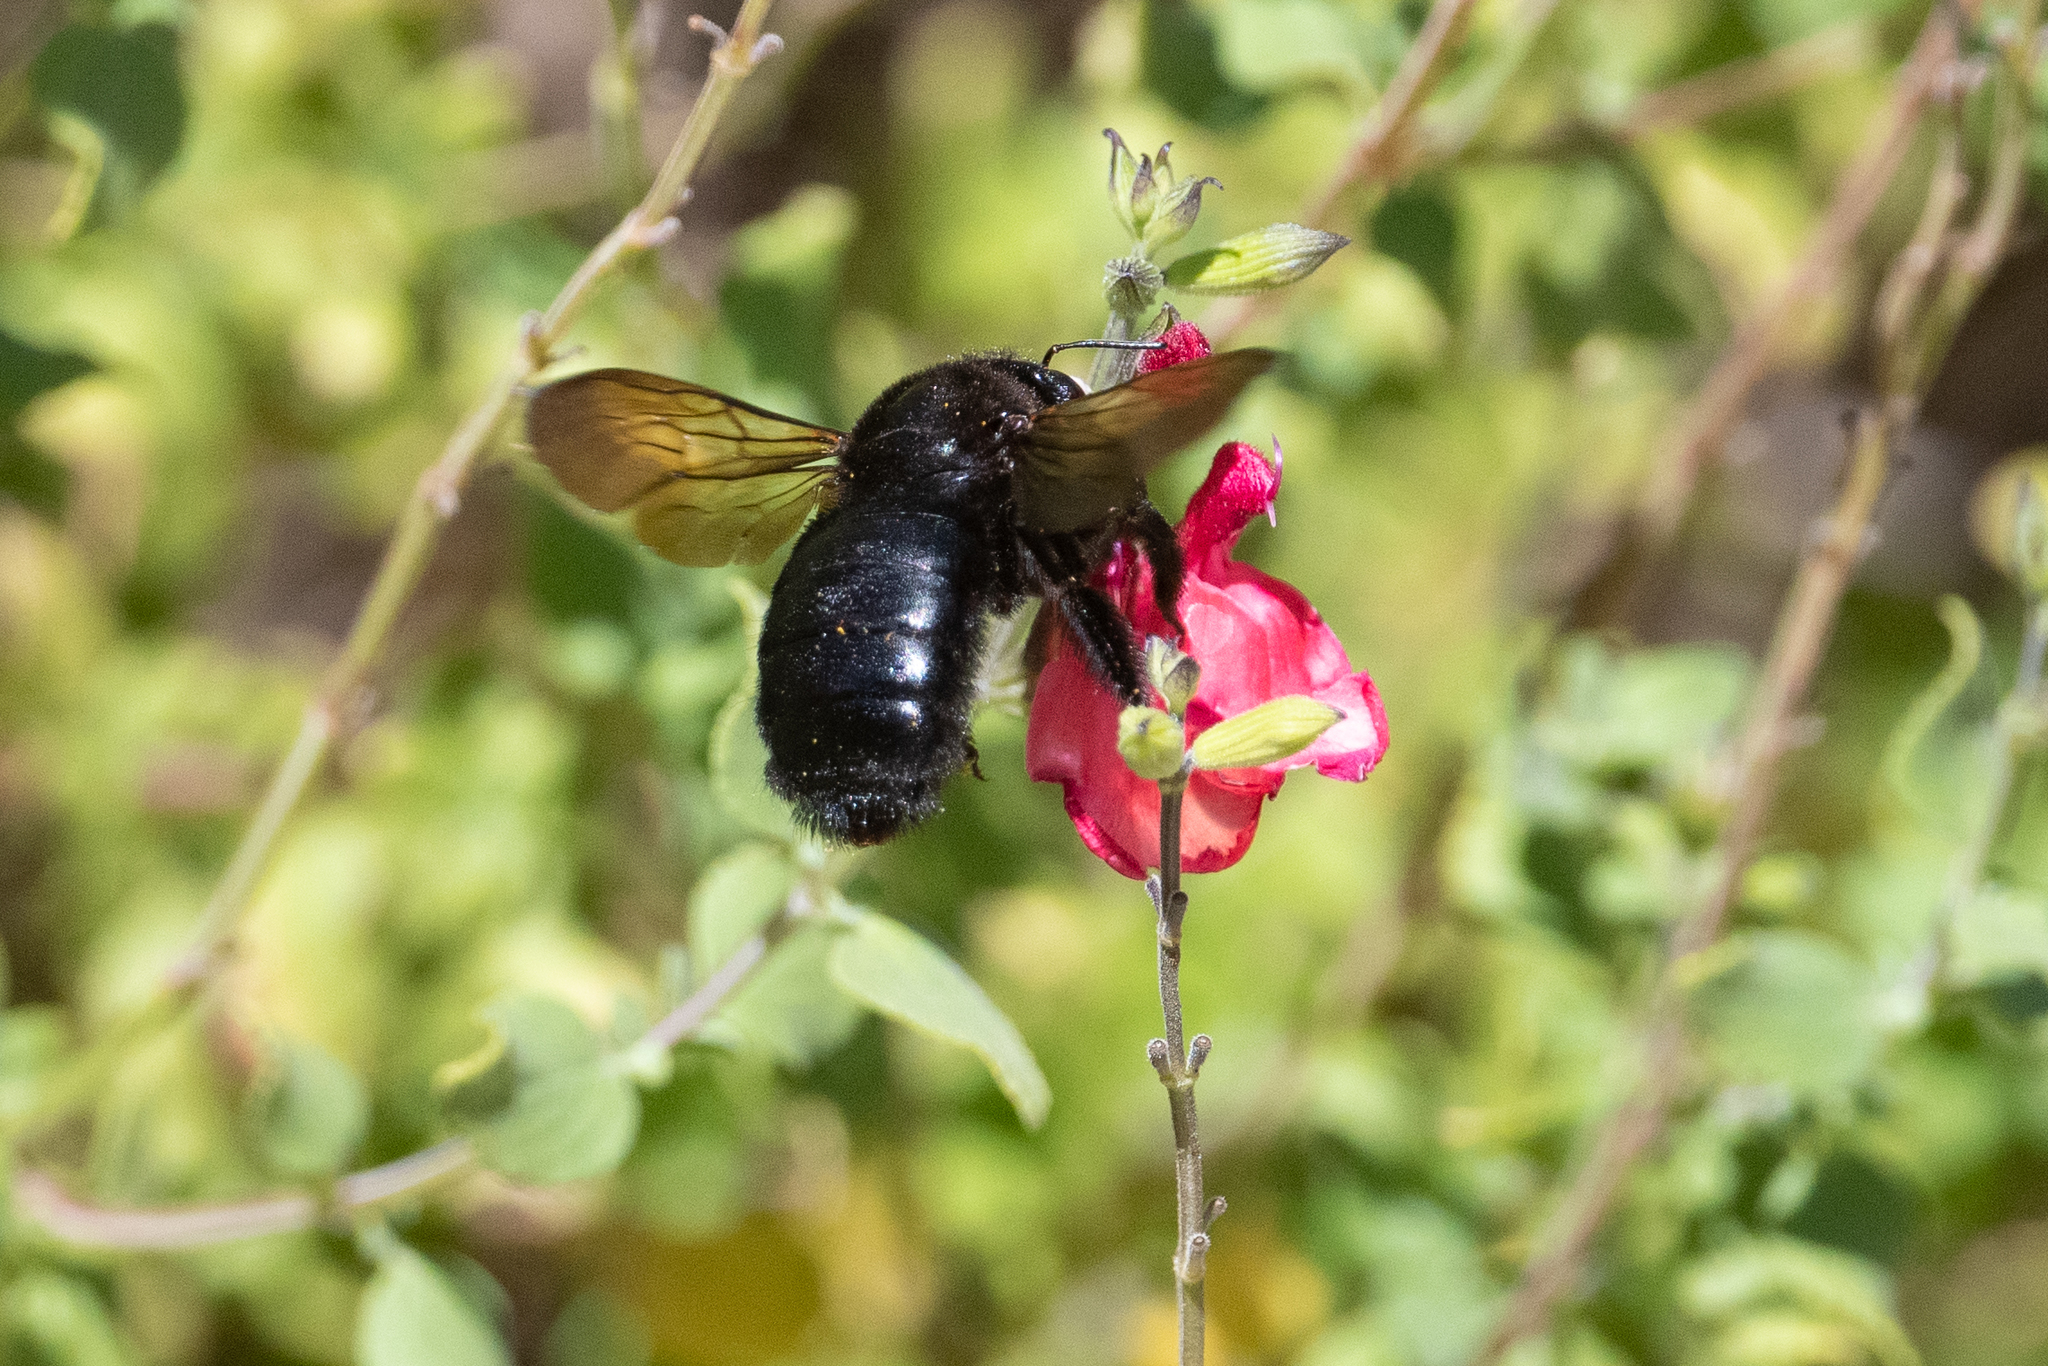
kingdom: Animalia
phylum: Arthropoda
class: Insecta
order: Hymenoptera
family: Apidae
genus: Xylocopa
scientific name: Xylocopa sonorina
